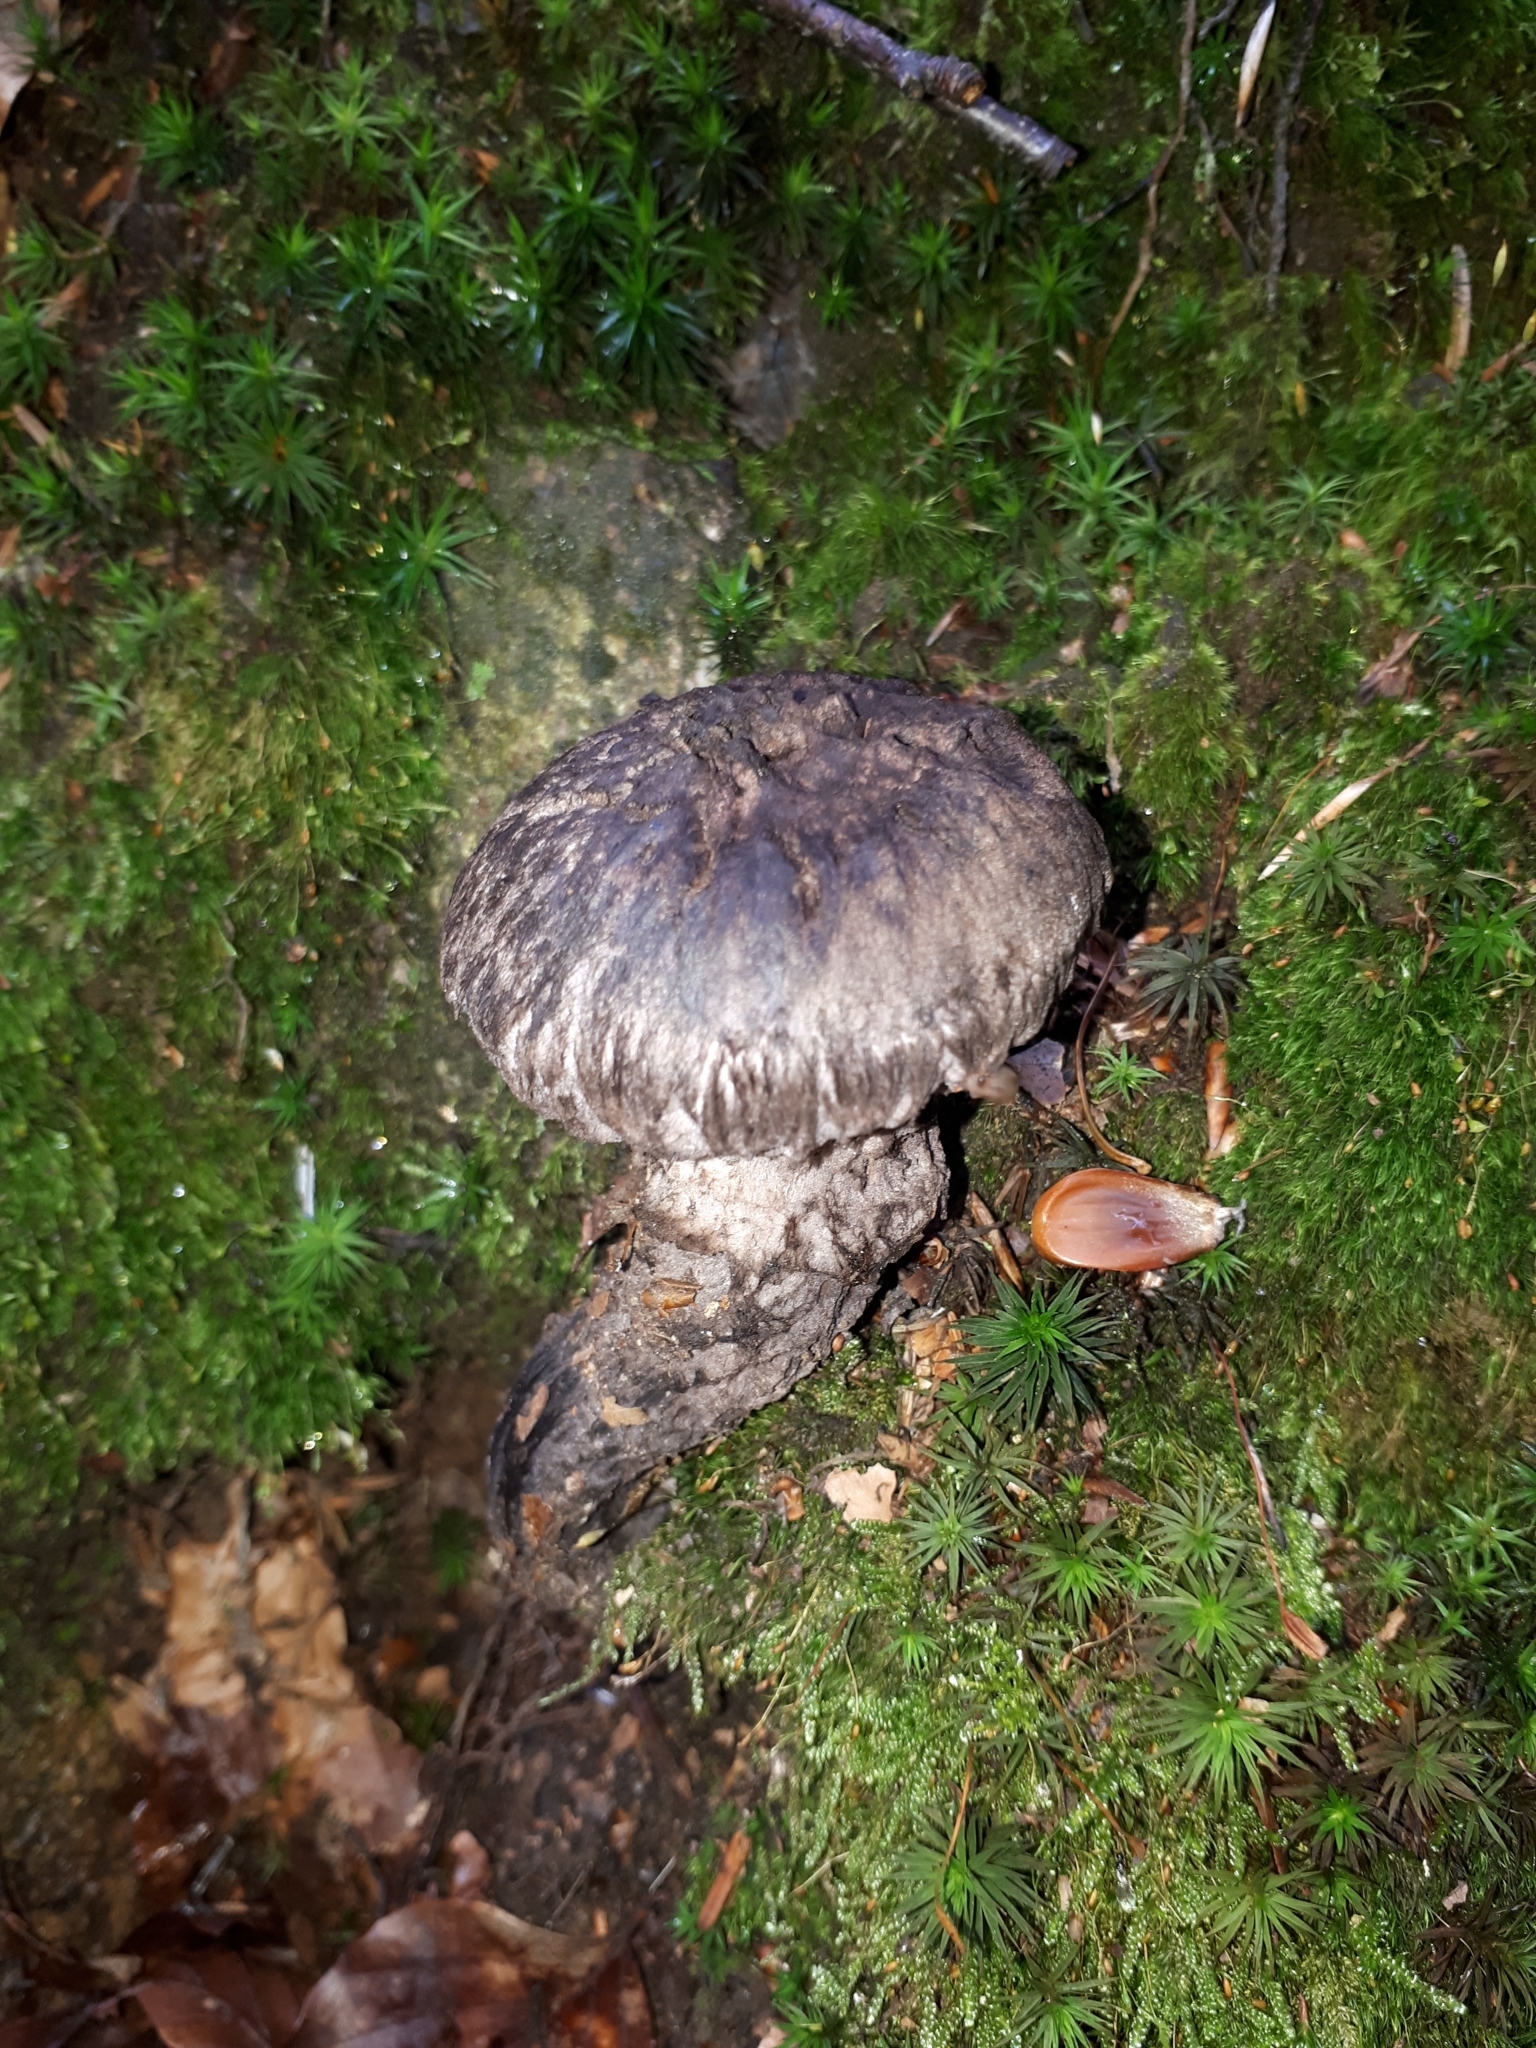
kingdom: Fungi
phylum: Basidiomycota
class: Agaricomycetes
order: Boletales
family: Boletaceae
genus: Strobilomyces
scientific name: Strobilomyces strobilaceus
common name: Old man of the woods
